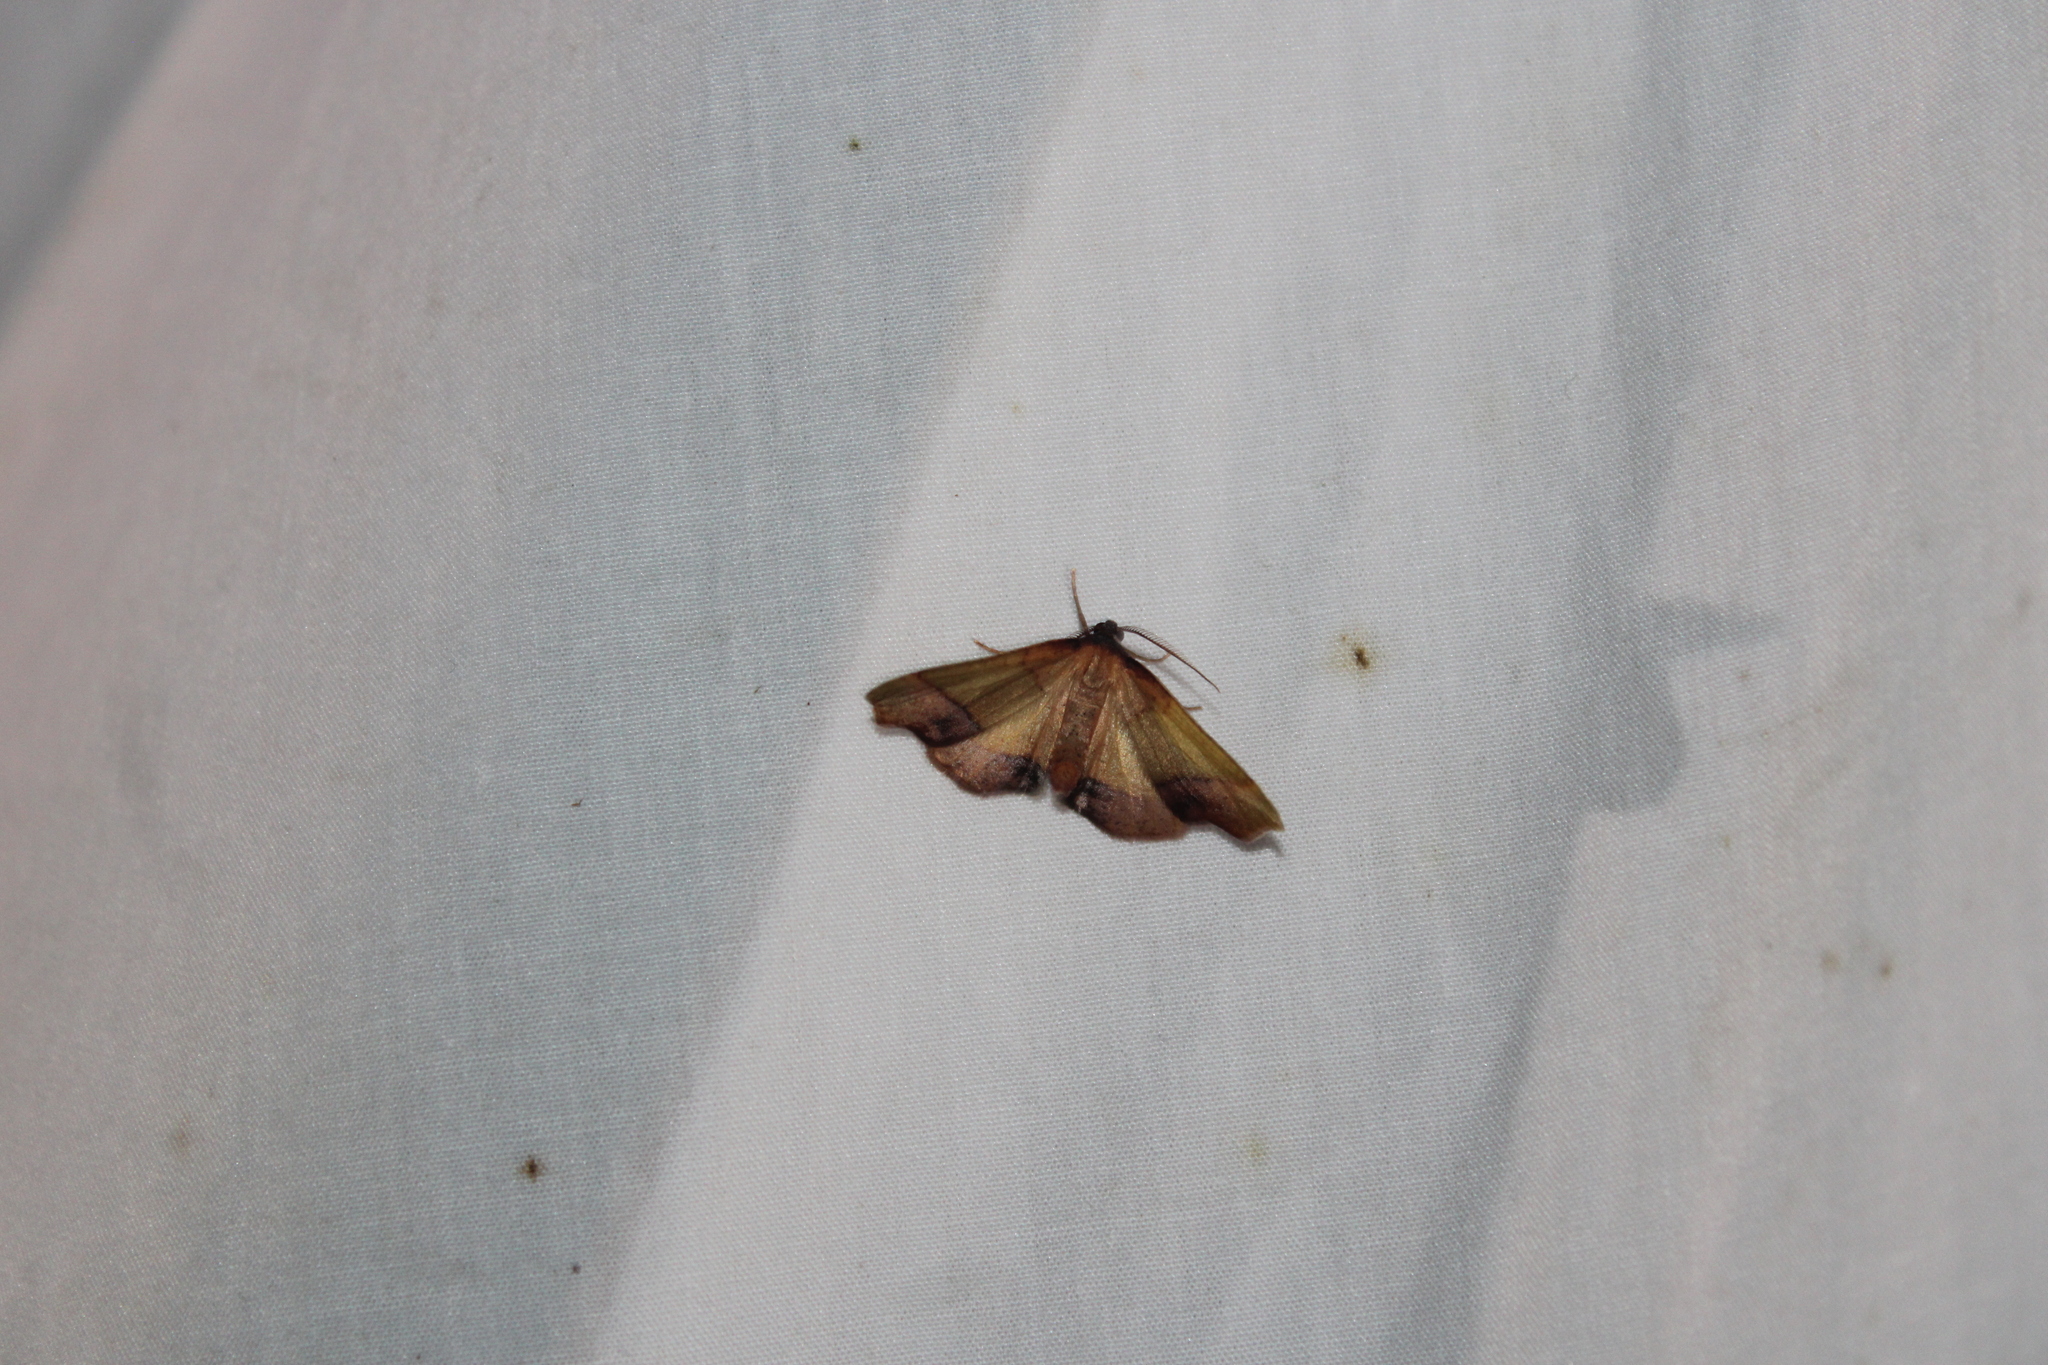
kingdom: Animalia
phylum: Arthropoda
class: Insecta
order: Lepidoptera
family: Geometridae
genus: Plagodis
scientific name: Plagodis phlogosaria
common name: Straight-lined plagodis
